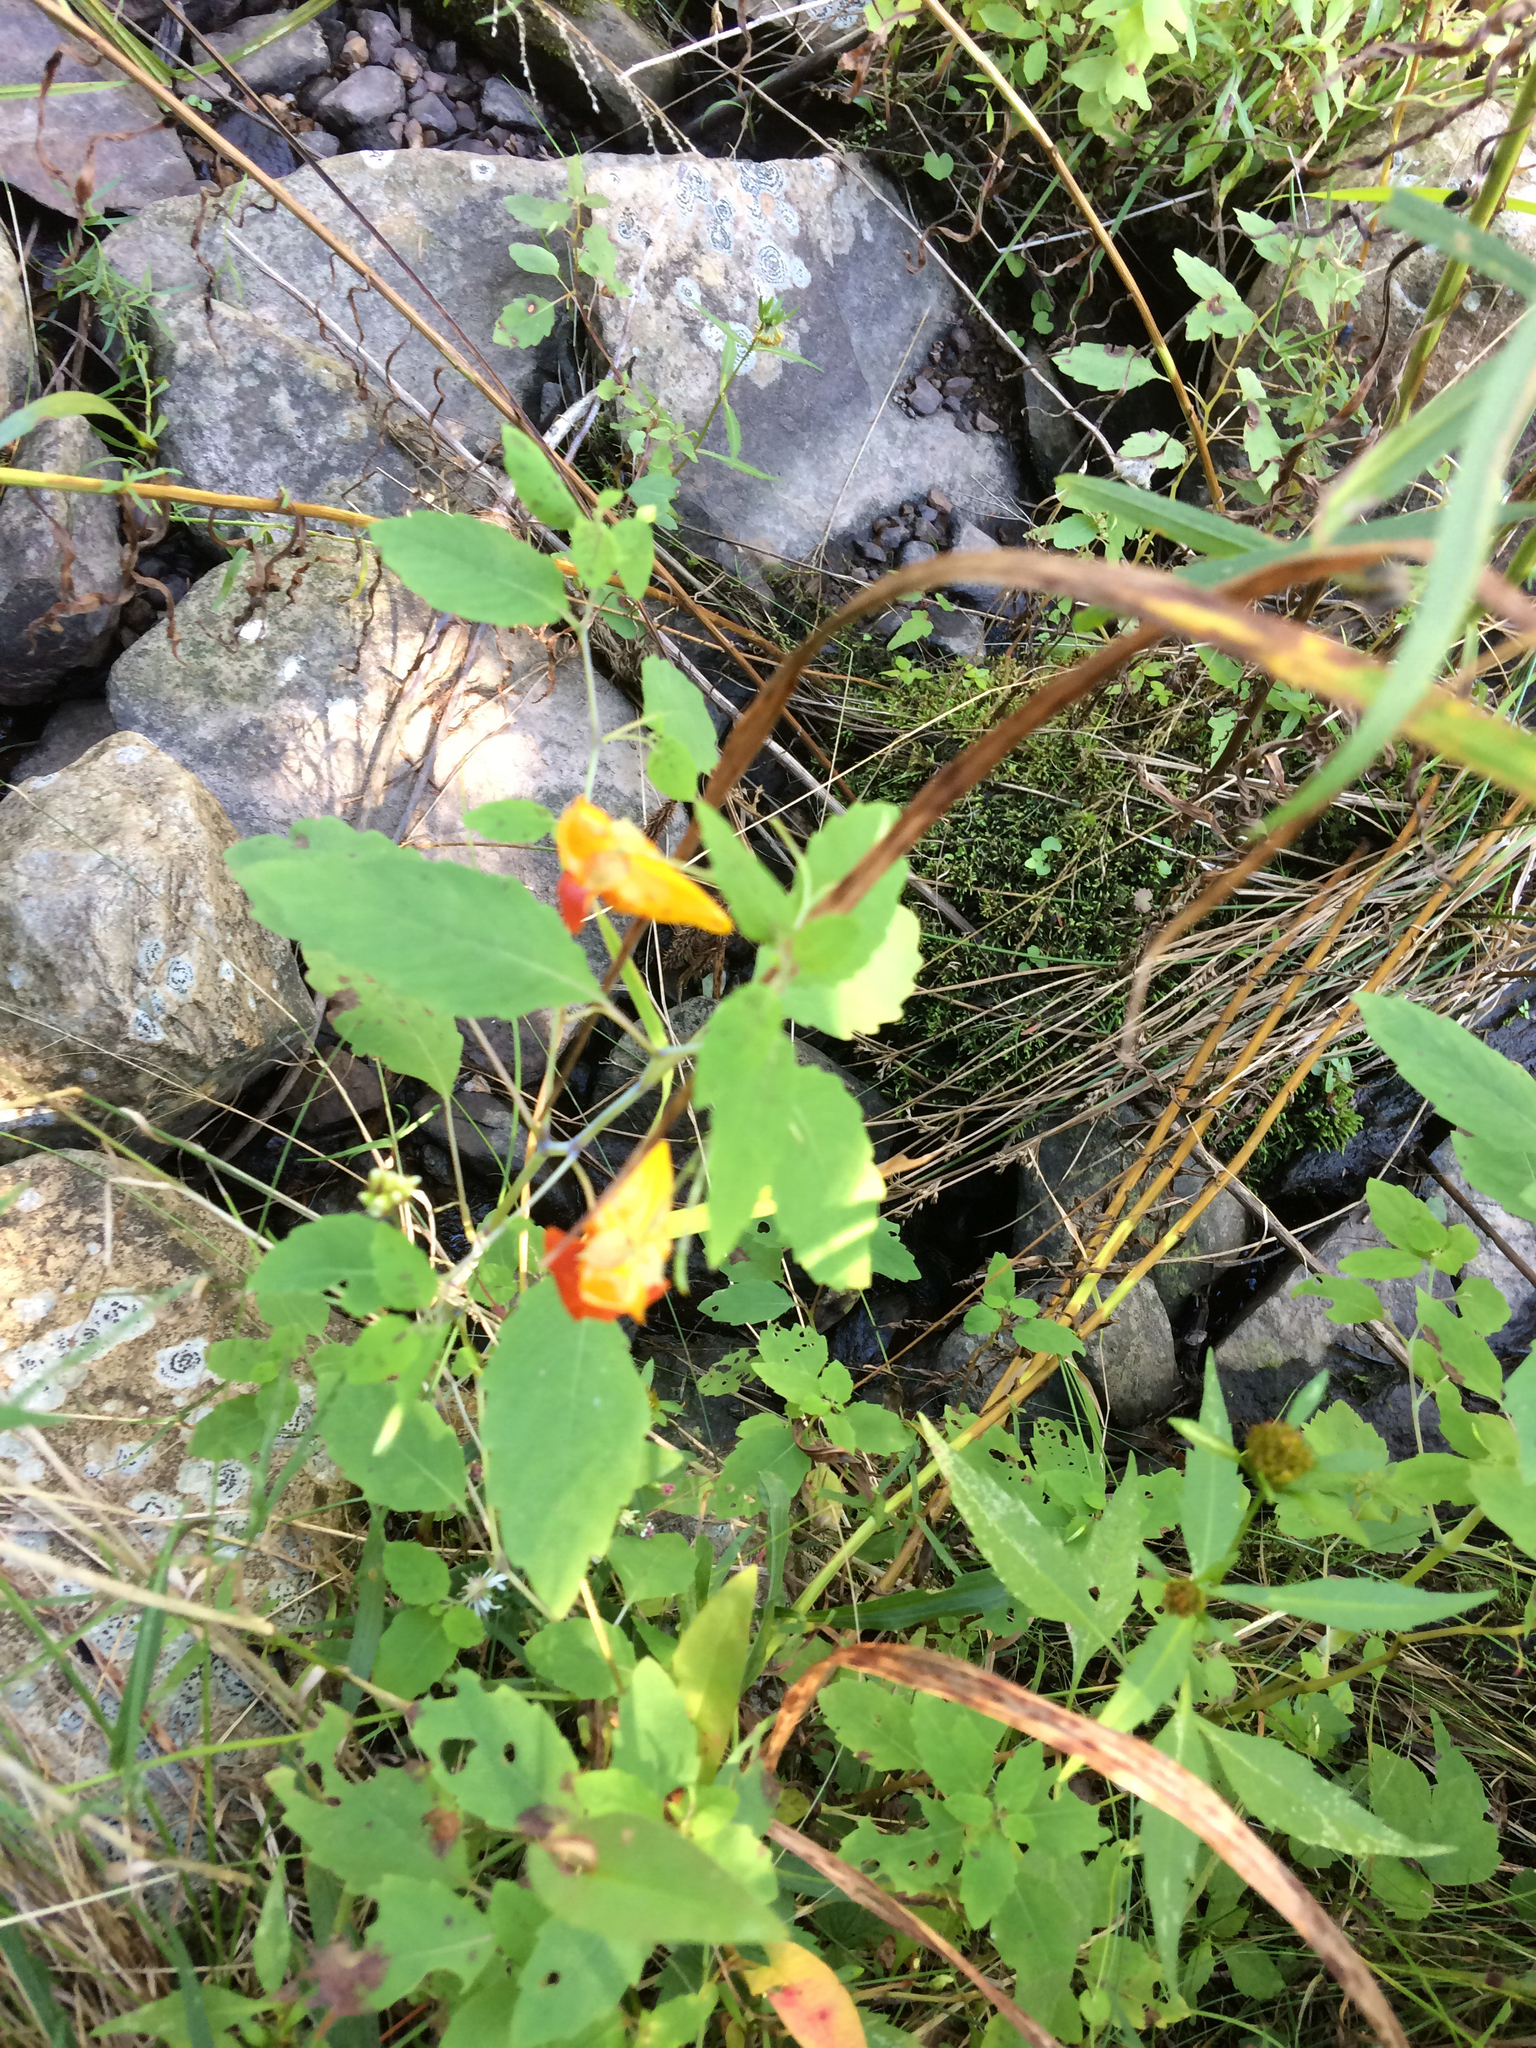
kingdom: Plantae
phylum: Tracheophyta
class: Magnoliopsida
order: Ericales
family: Balsaminaceae
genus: Impatiens
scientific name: Impatiens capensis
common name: Orange balsam
